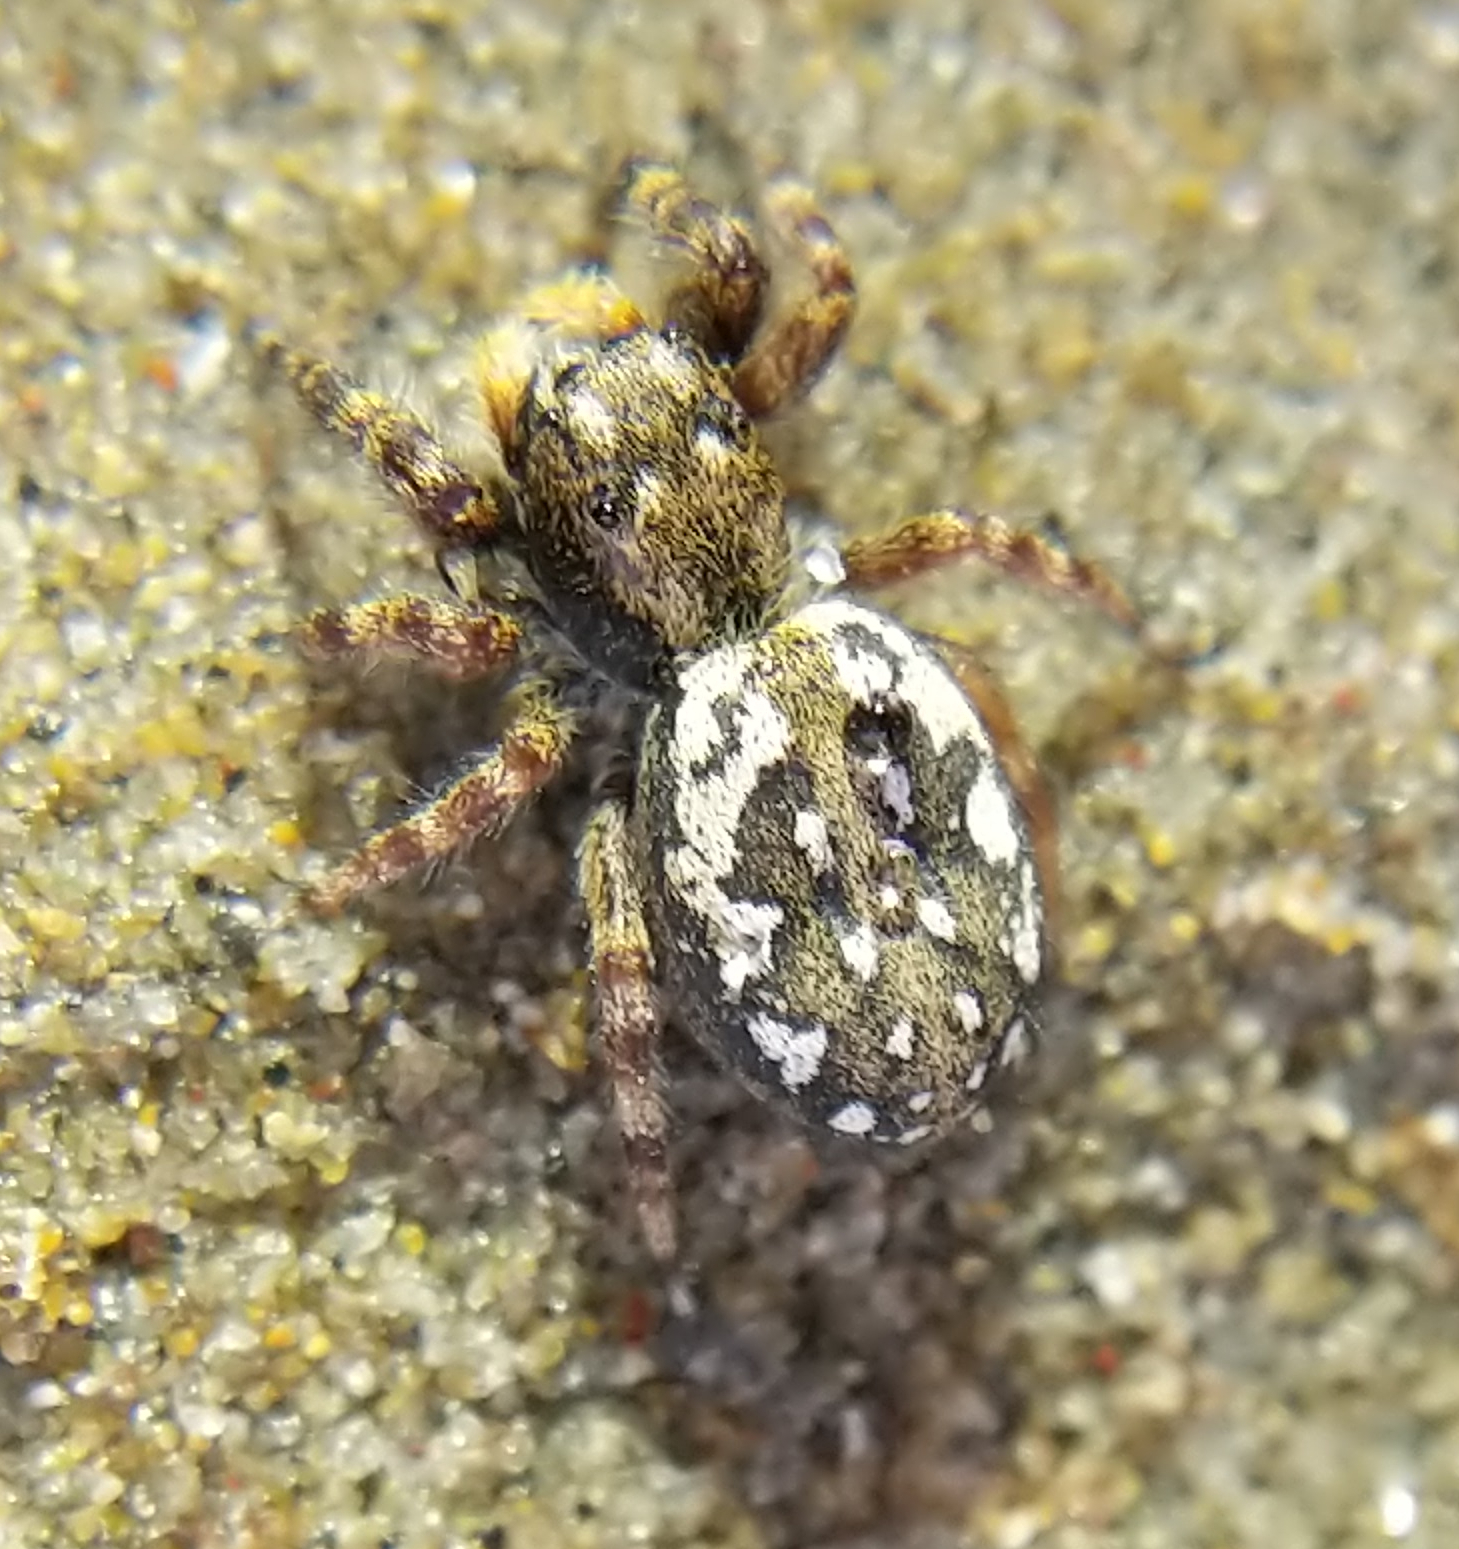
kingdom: Animalia
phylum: Arthropoda
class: Arachnida
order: Araneae
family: Salticidae
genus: Terralonus
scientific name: Terralonus californicus
